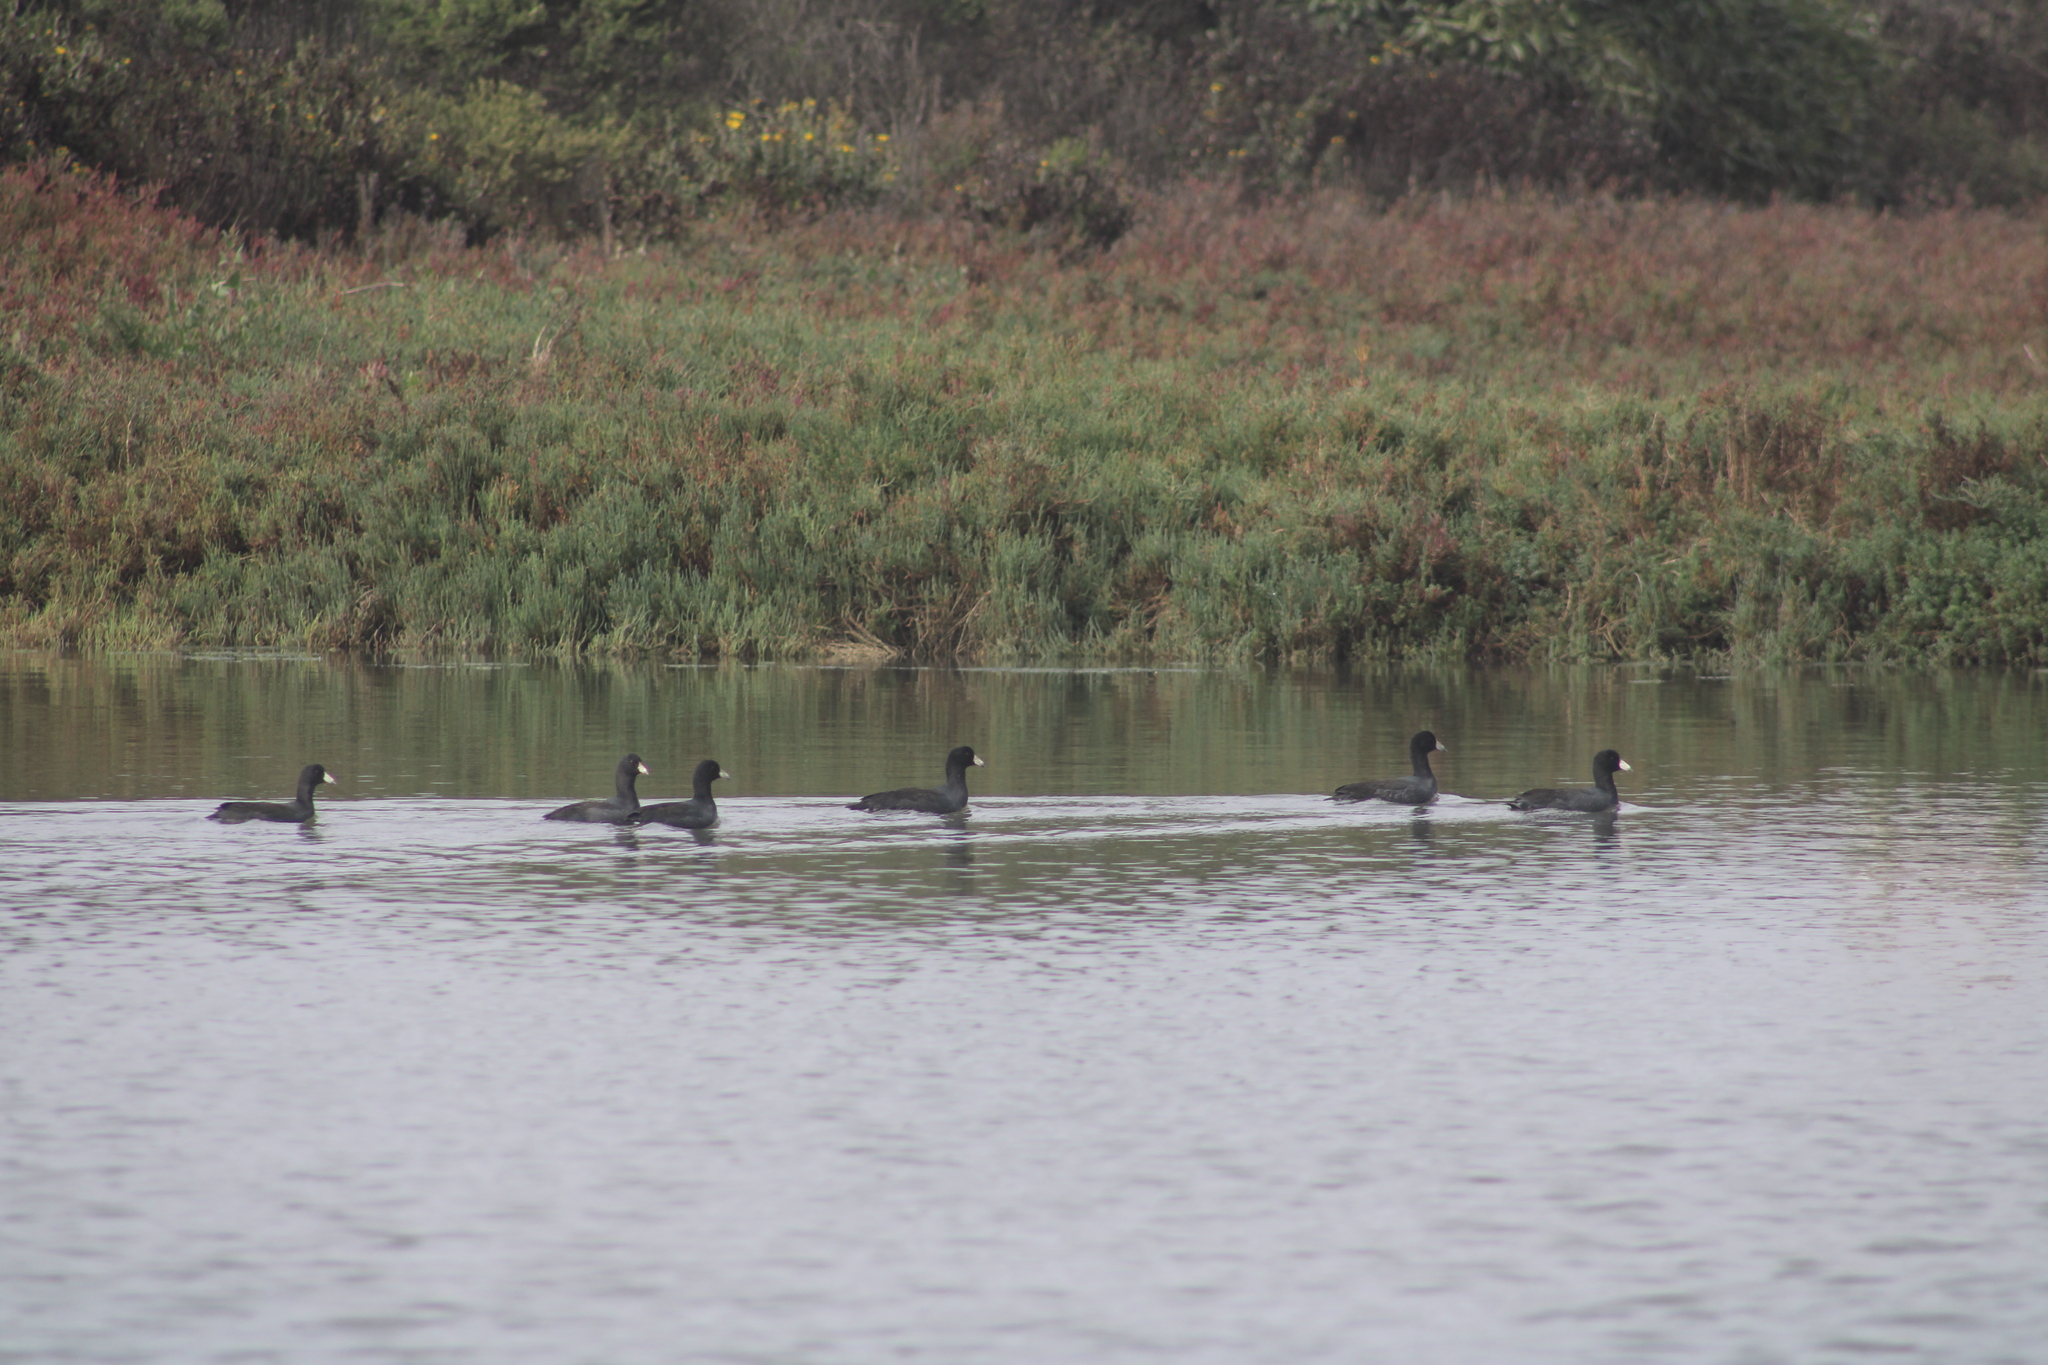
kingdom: Animalia
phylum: Chordata
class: Aves
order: Gruiformes
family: Rallidae
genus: Fulica
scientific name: Fulica americana
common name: American coot
